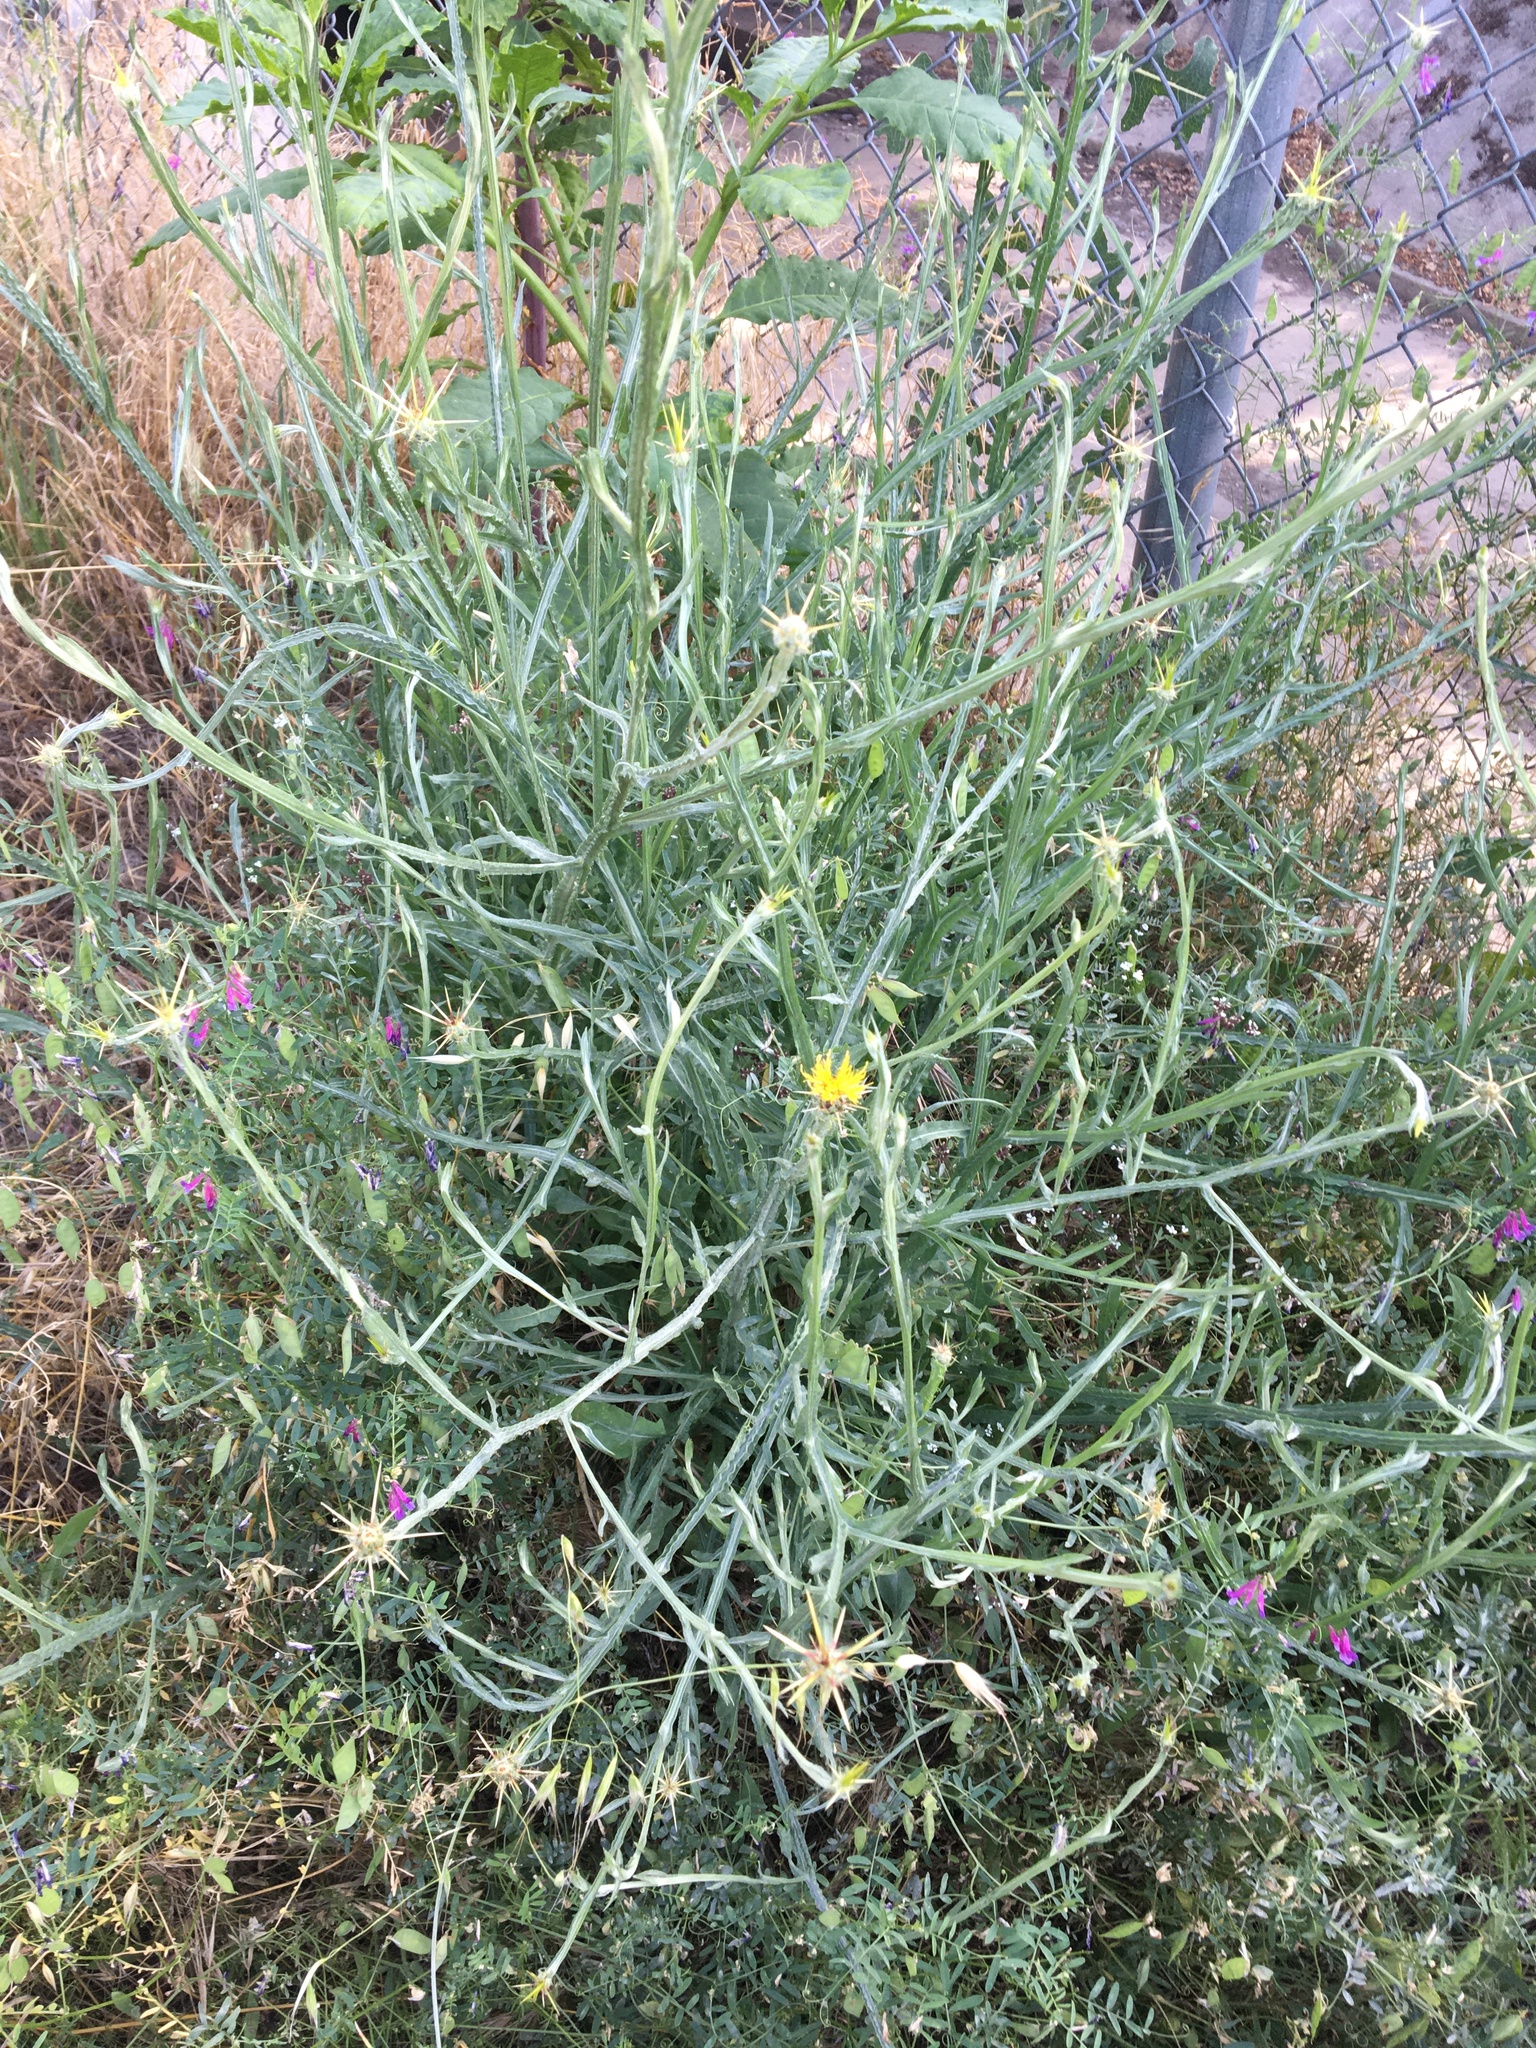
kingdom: Plantae
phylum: Tracheophyta
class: Magnoliopsida
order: Asterales
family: Asteraceae
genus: Centaurea
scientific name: Centaurea solstitialis
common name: Yellow star-thistle
